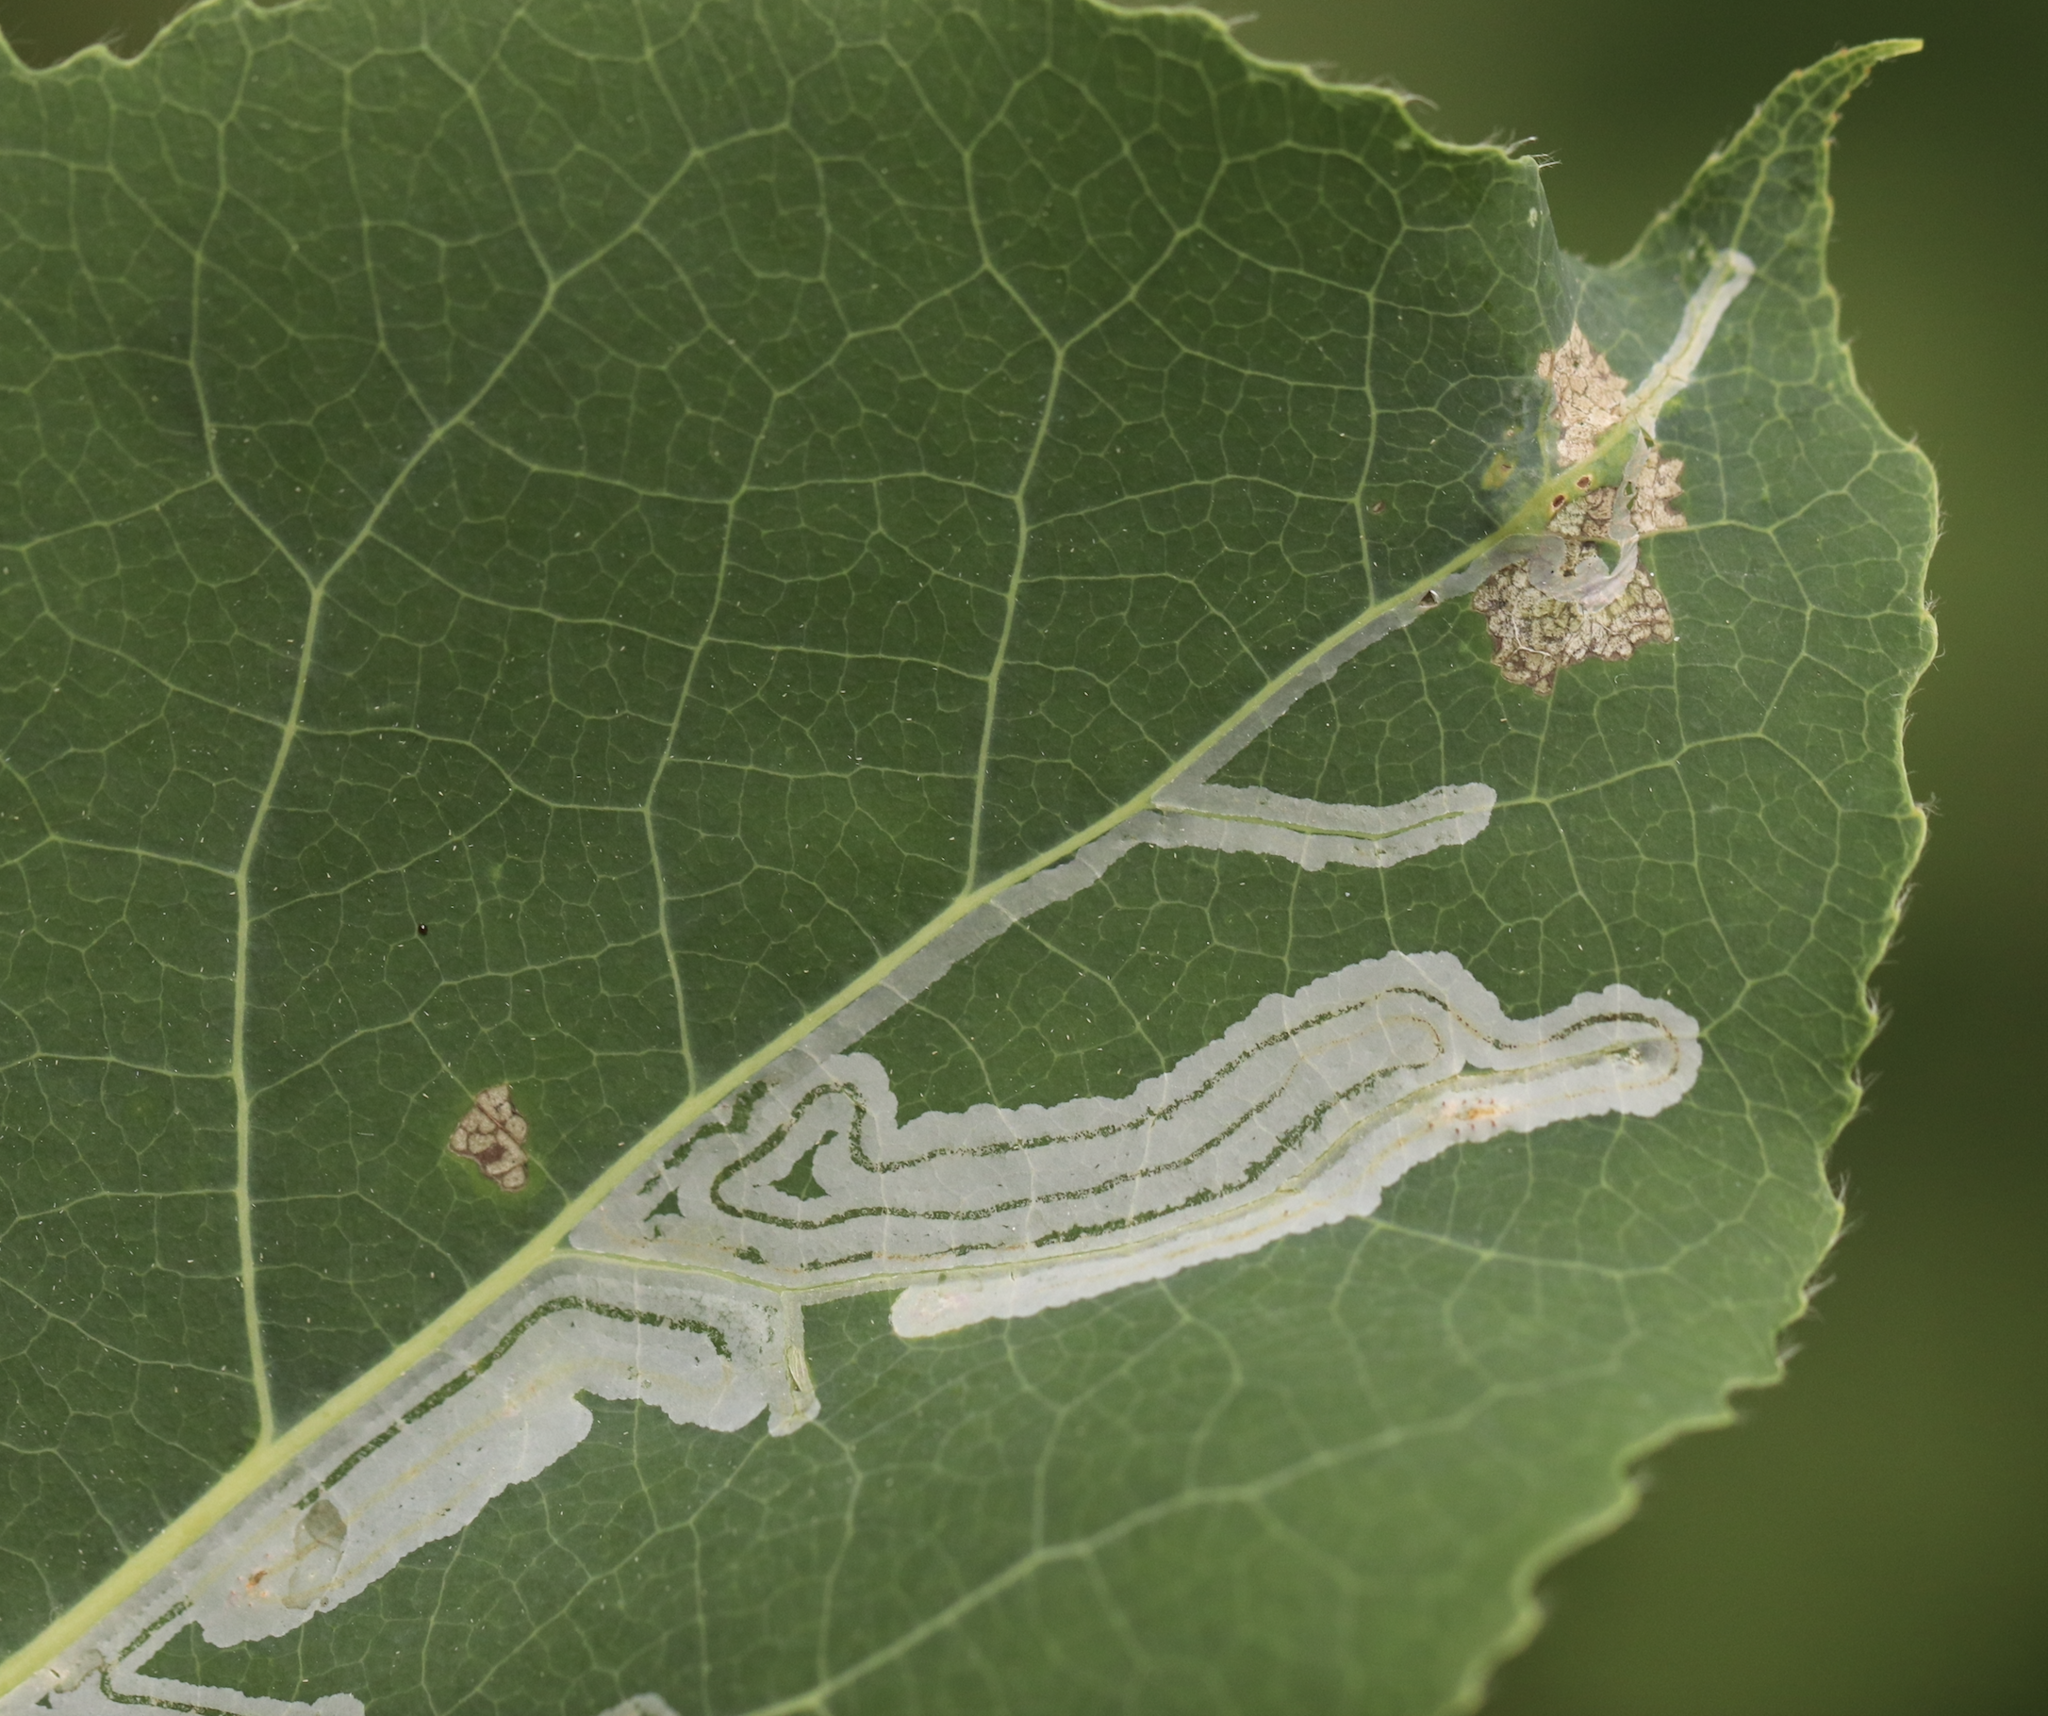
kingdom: Animalia
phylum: Arthropoda
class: Insecta
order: Lepidoptera
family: Gracillariidae
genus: Phyllocnistis
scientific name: Phyllocnistis populiella
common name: Aspen serpentine leafminer moth
